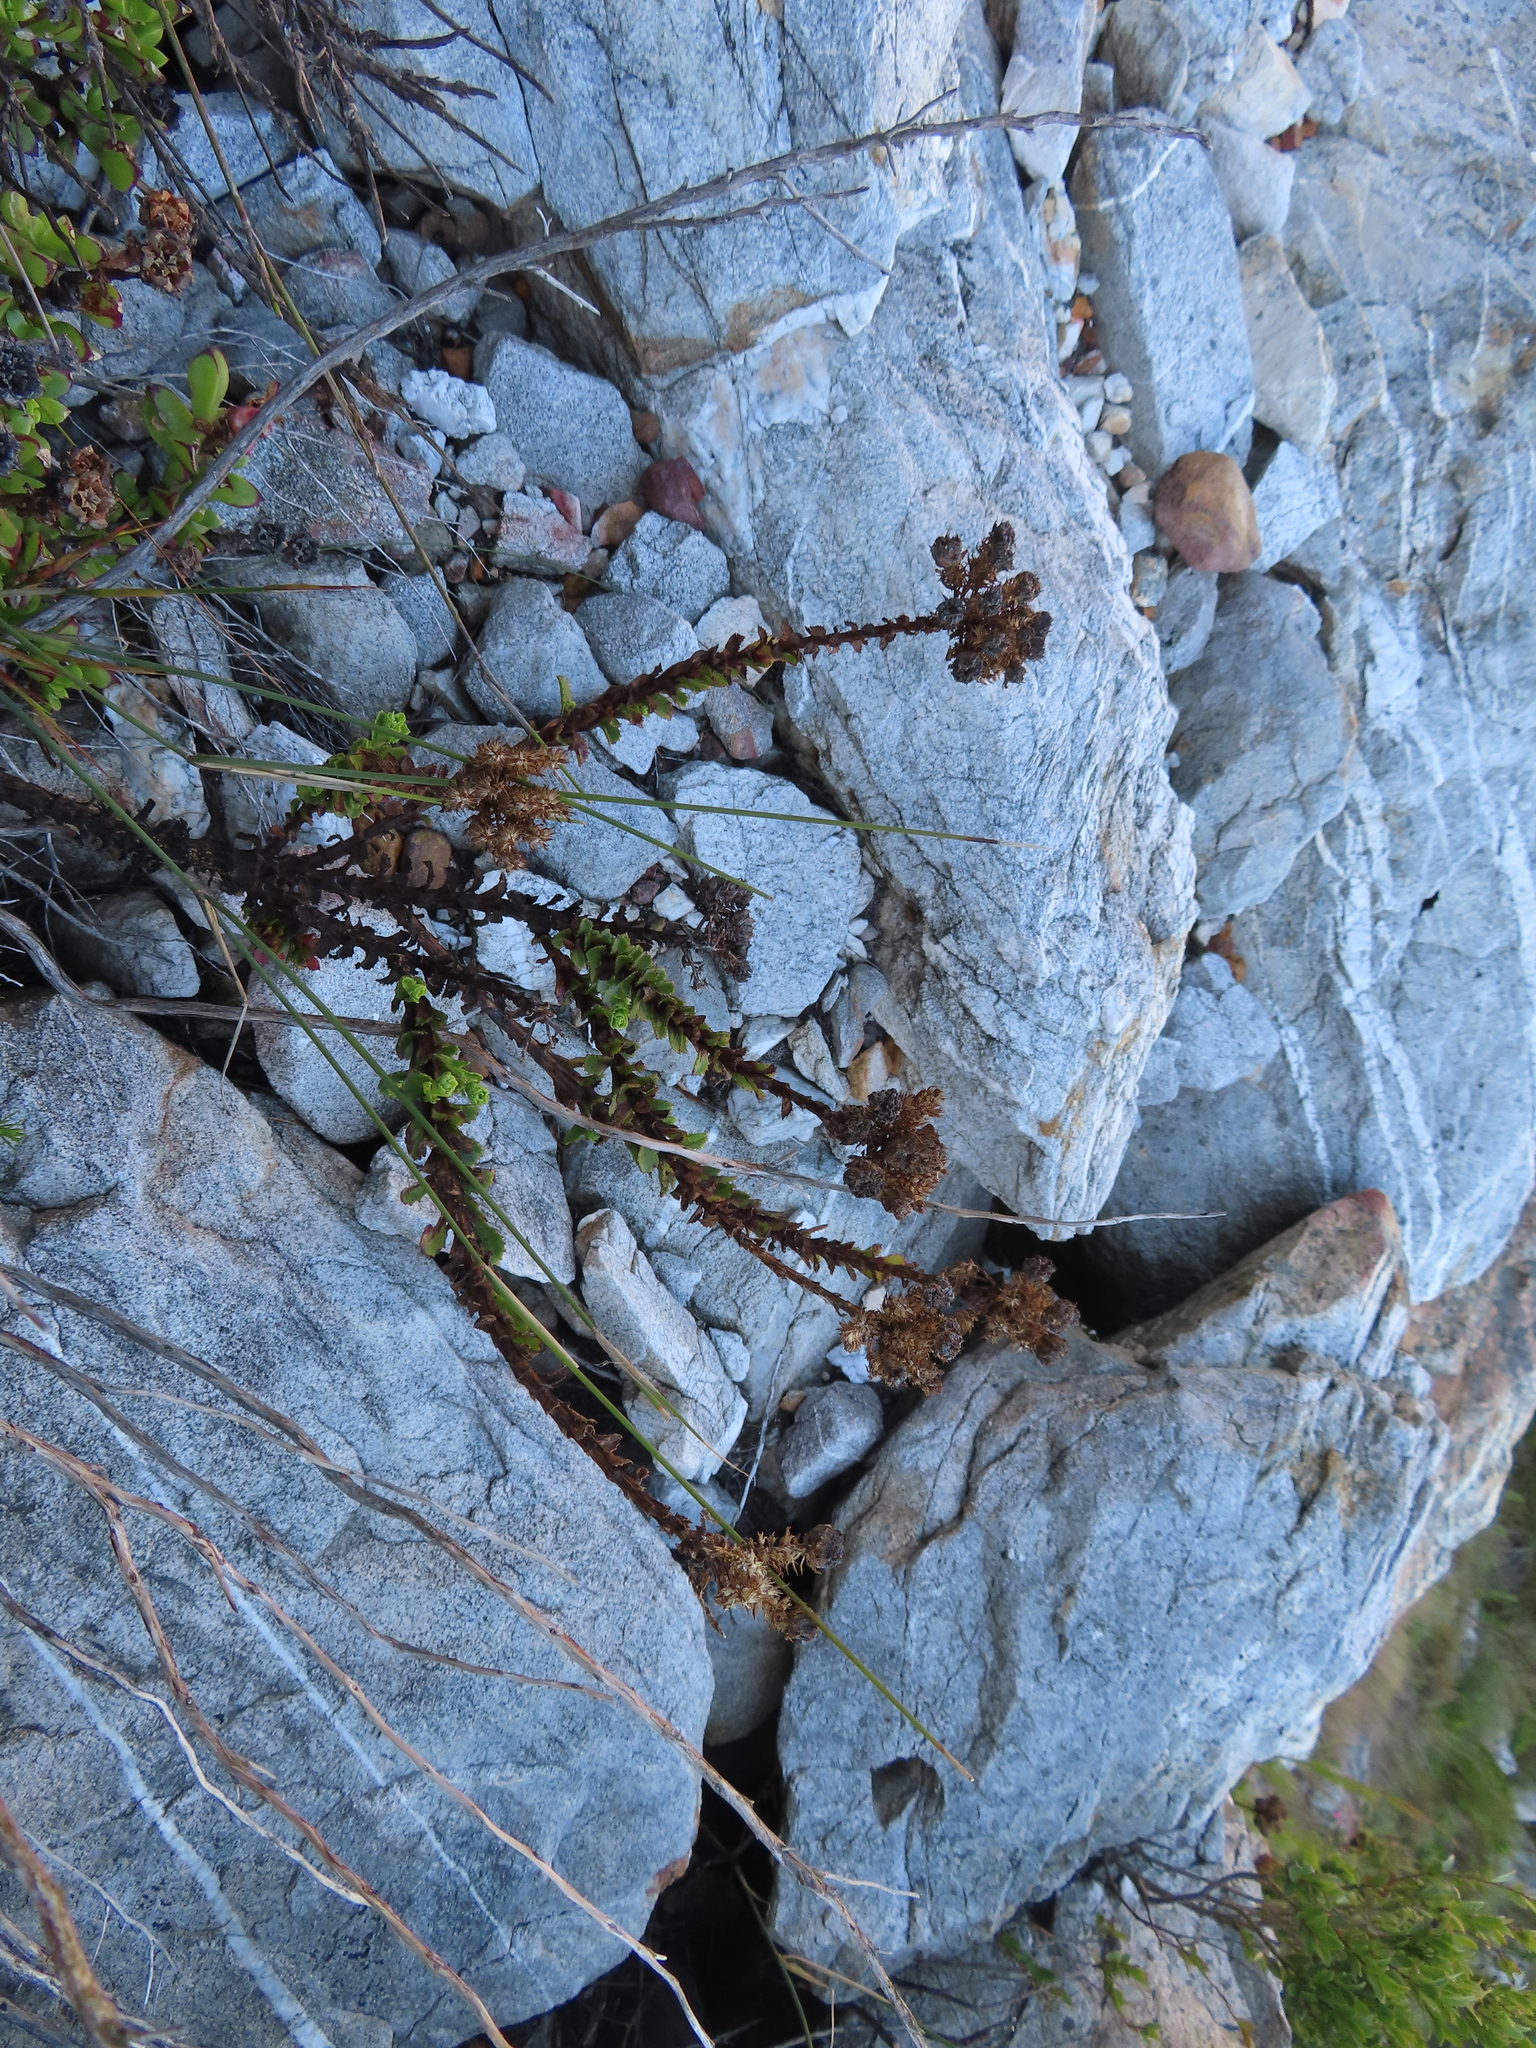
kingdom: Plantae
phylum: Tracheophyta
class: Magnoliopsida
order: Lamiales
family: Scrophulariaceae
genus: Pseudoselago
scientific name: Pseudoselago serrata
